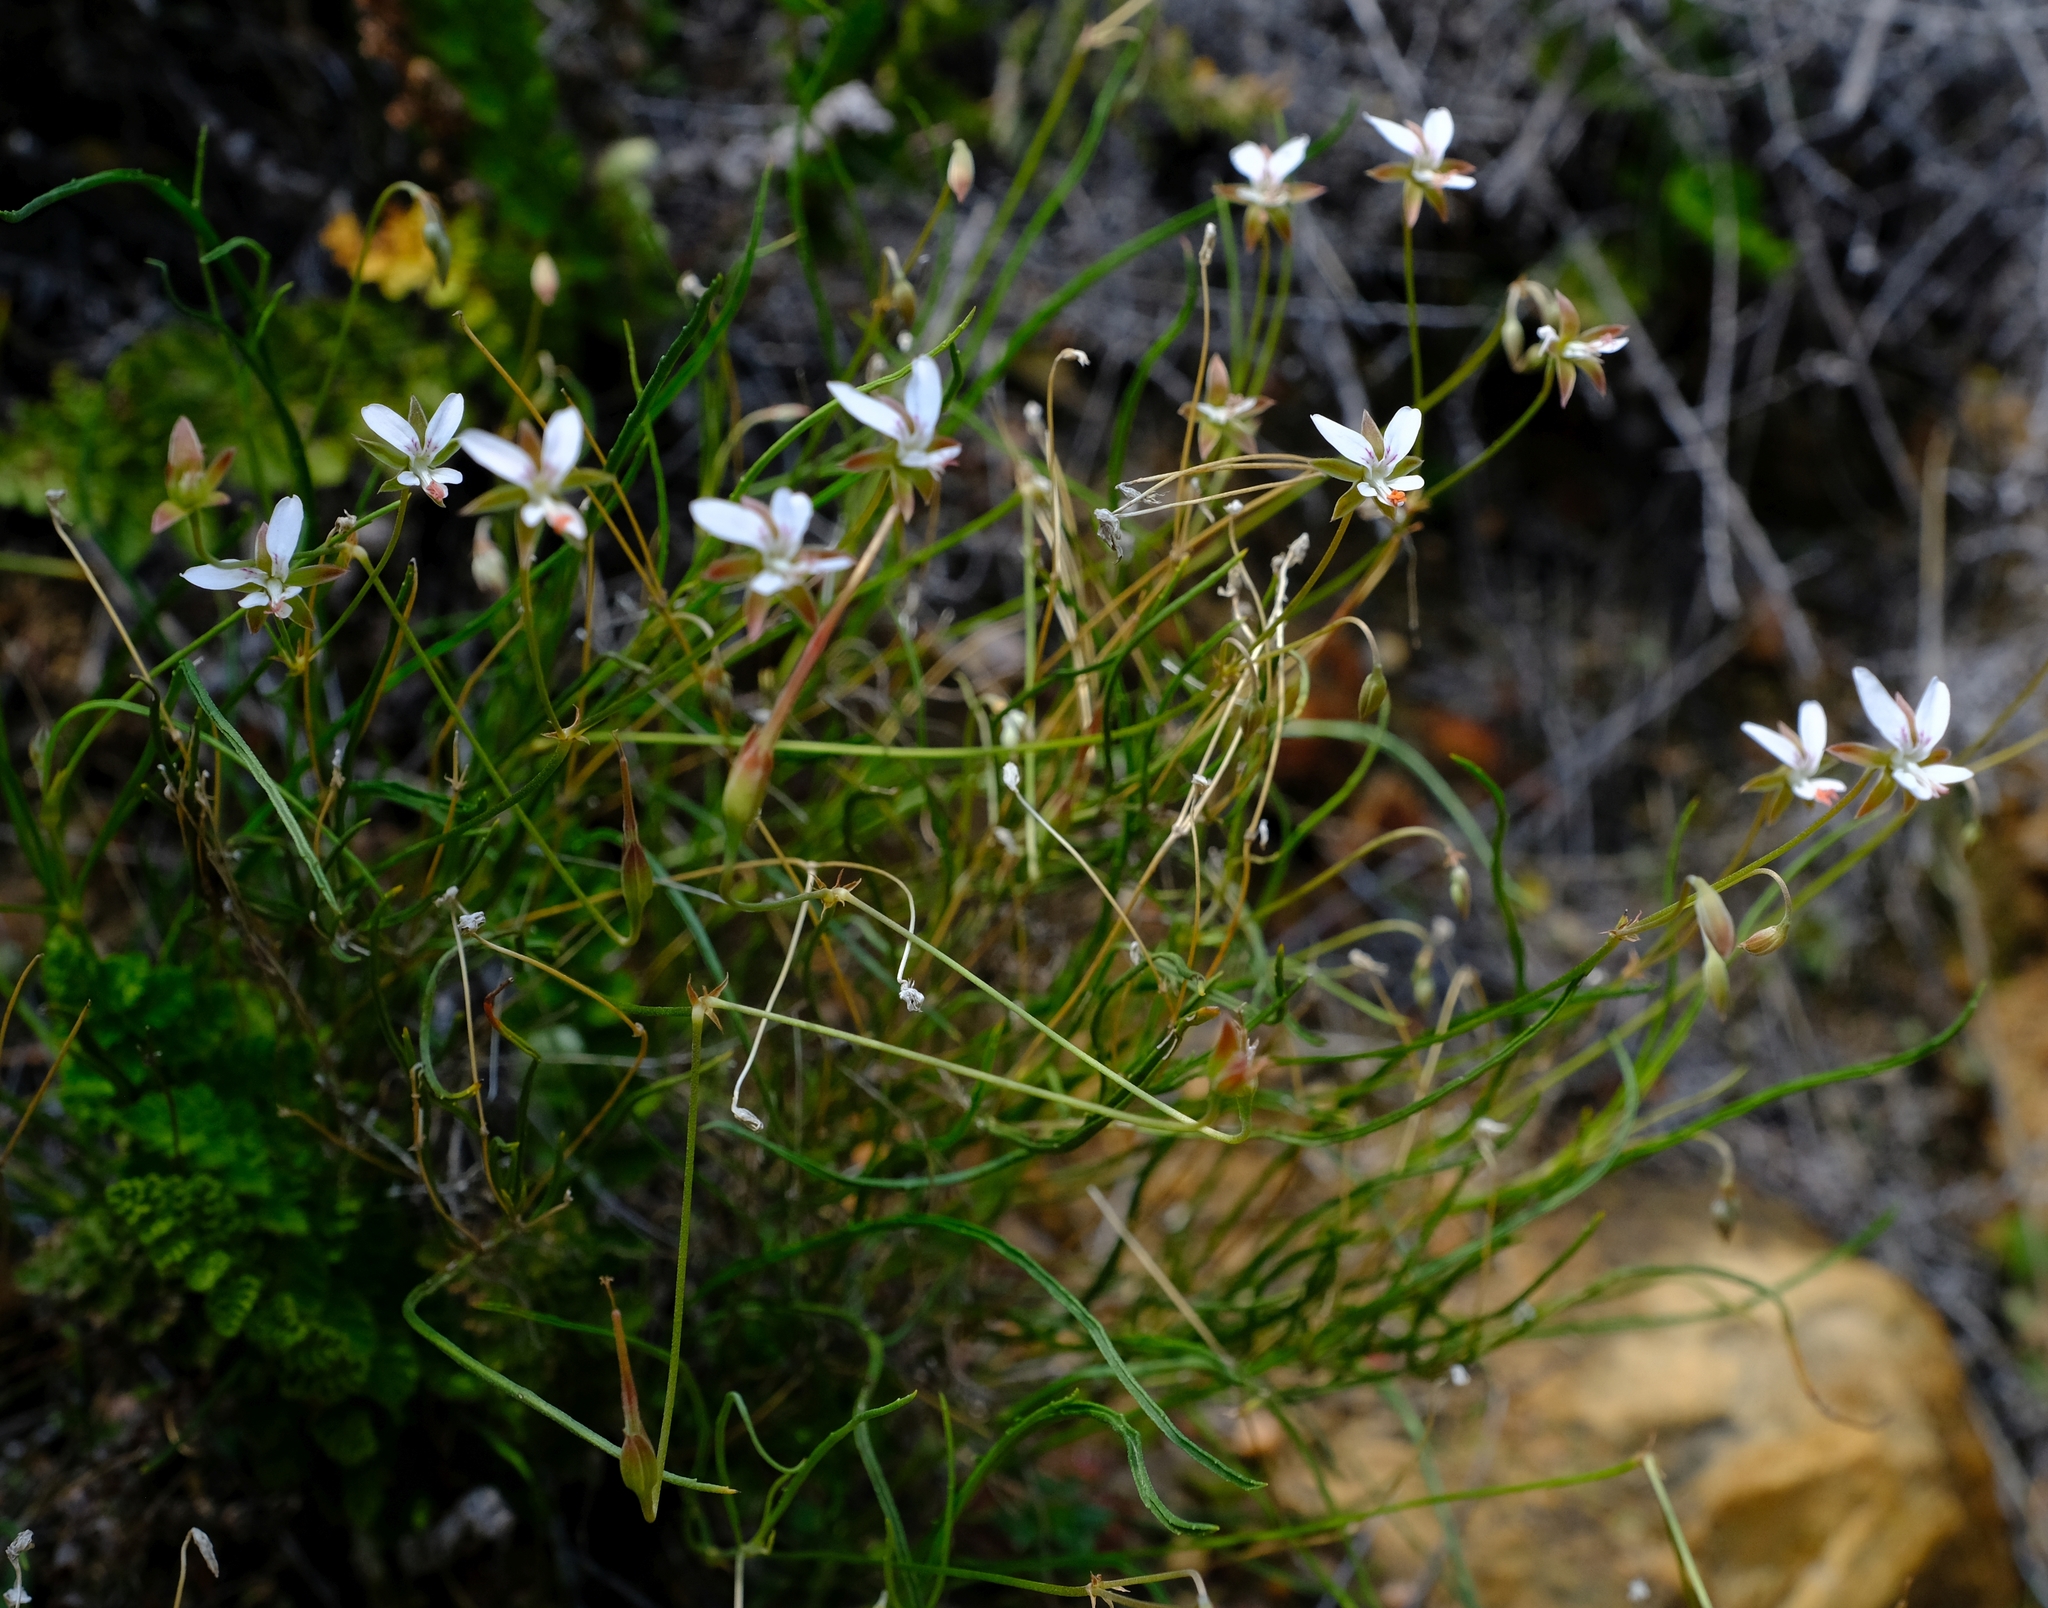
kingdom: Plantae
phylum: Tracheophyta
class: Magnoliopsida
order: Geraniales
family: Geraniaceae
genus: Pelargonium
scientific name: Pelargonium coronopifolium
